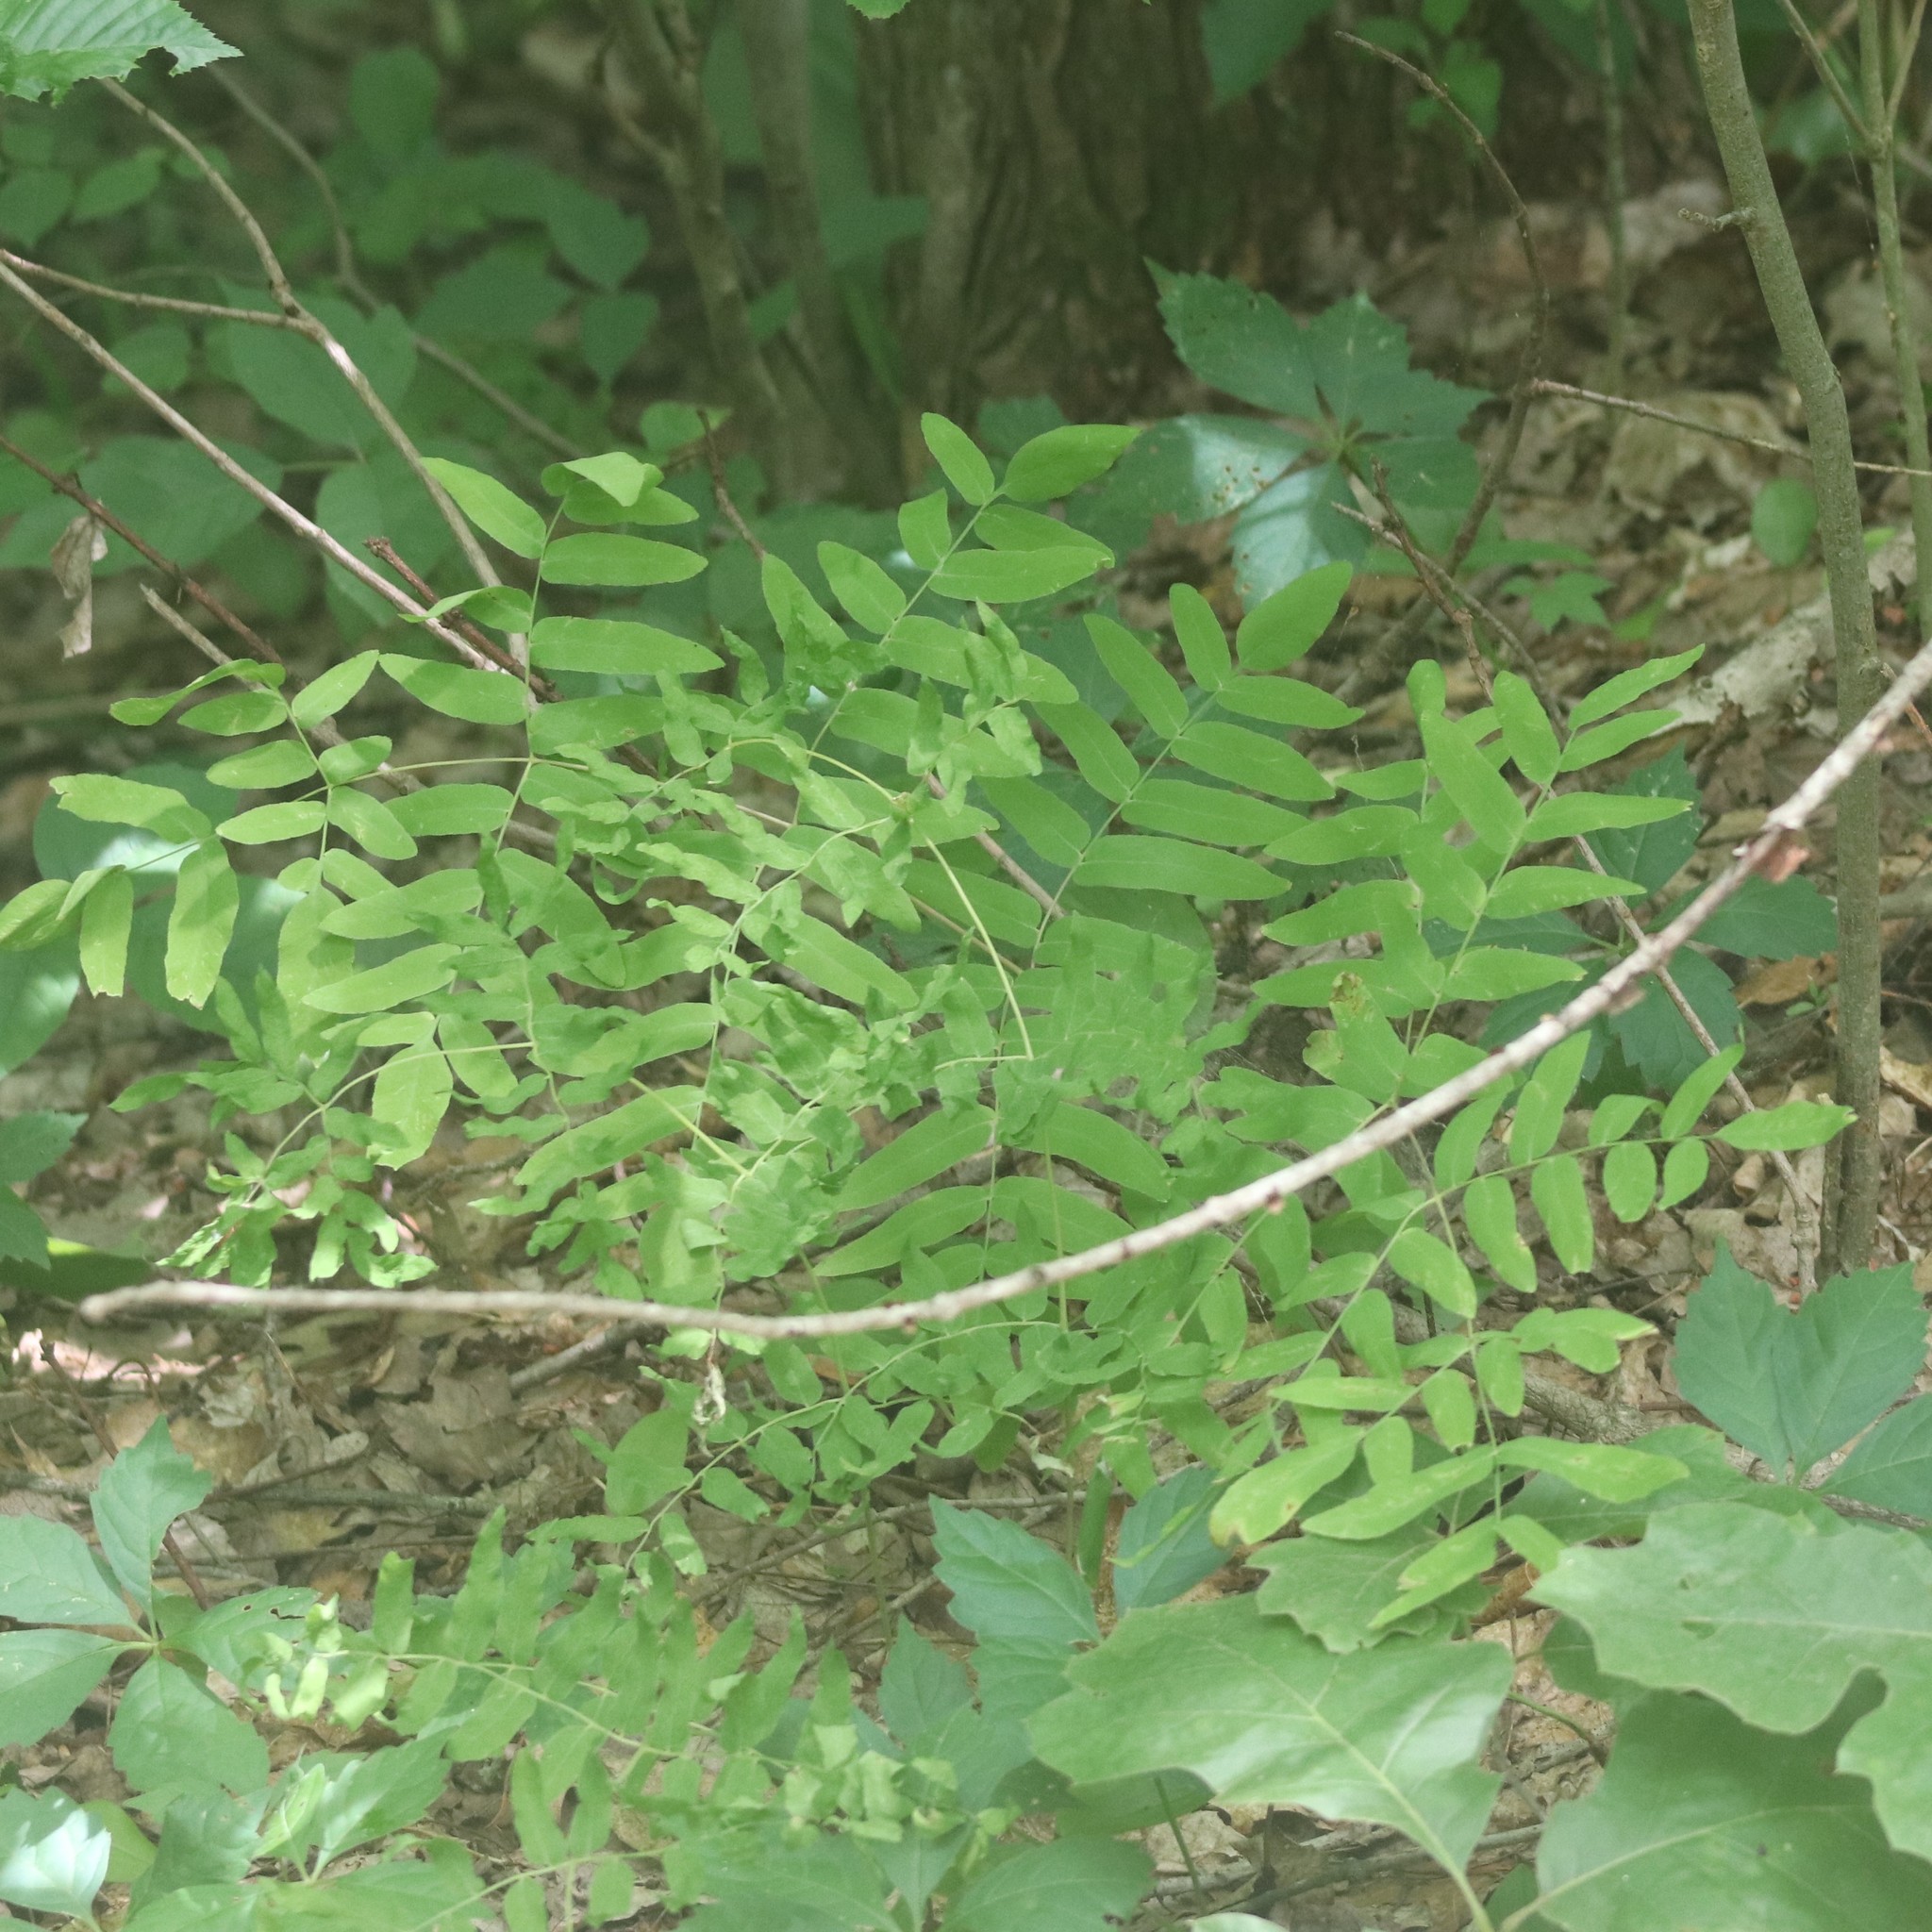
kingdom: Plantae
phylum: Tracheophyta
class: Polypodiopsida
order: Osmundales
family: Osmundaceae
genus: Osmunda
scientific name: Osmunda spectabilis
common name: American royal fern
